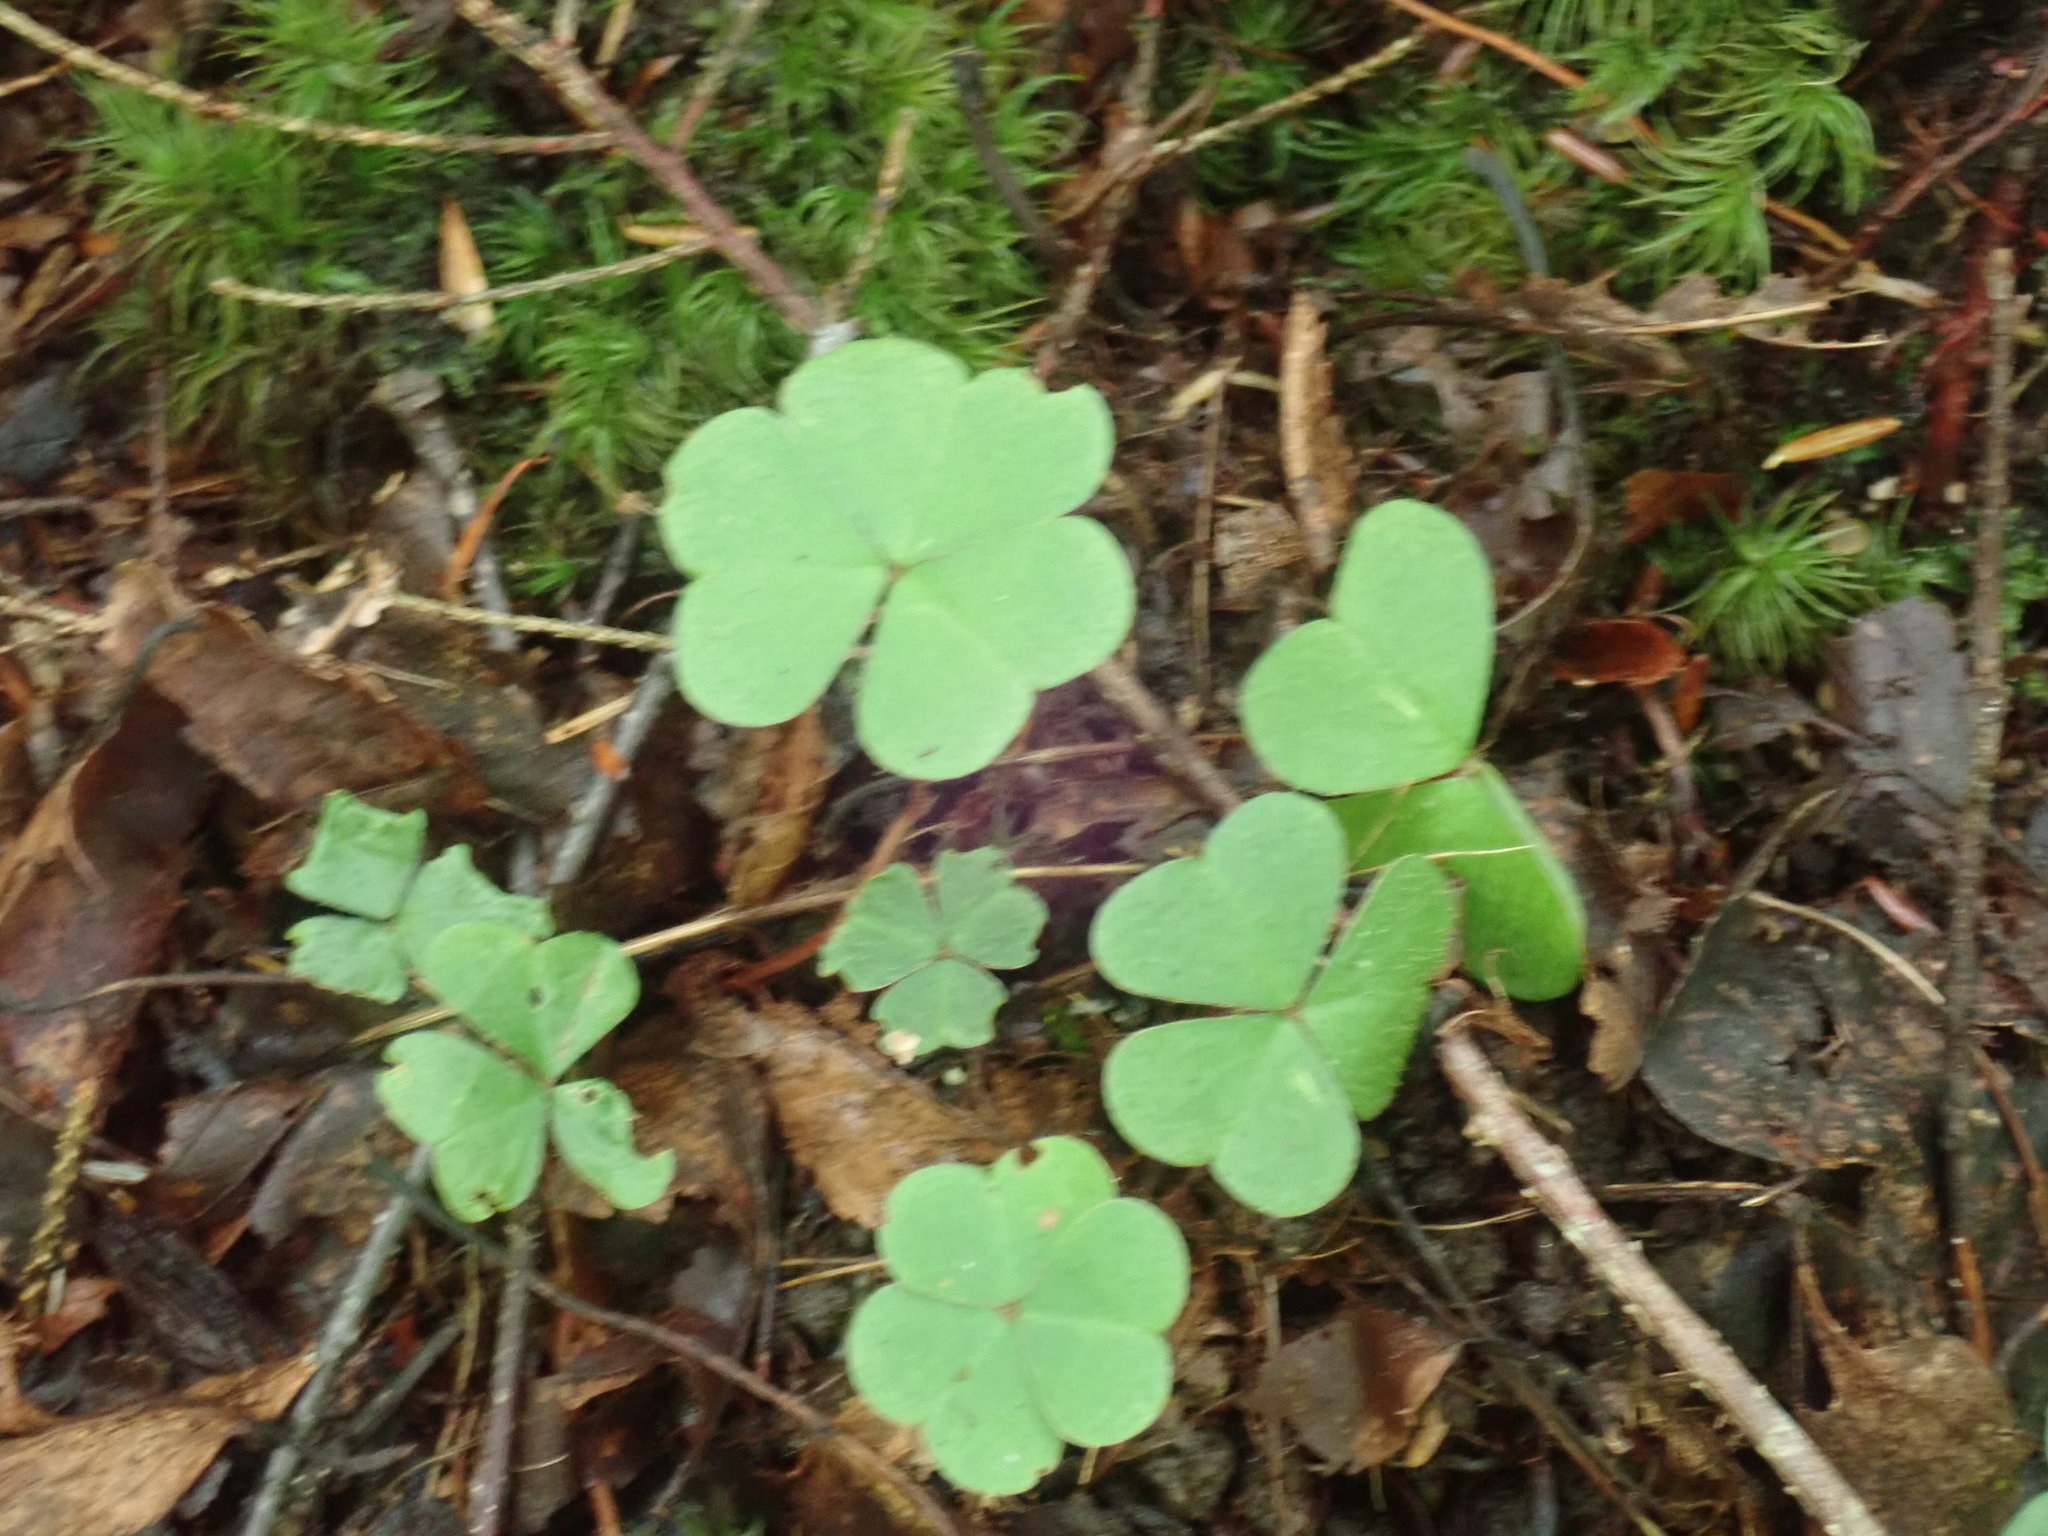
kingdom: Plantae
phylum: Tracheophyta
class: Magnoliopsida
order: Oxalidales
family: Oxalidaceae
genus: Oxalis
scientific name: Oxalis montana
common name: American wood-sorrel
